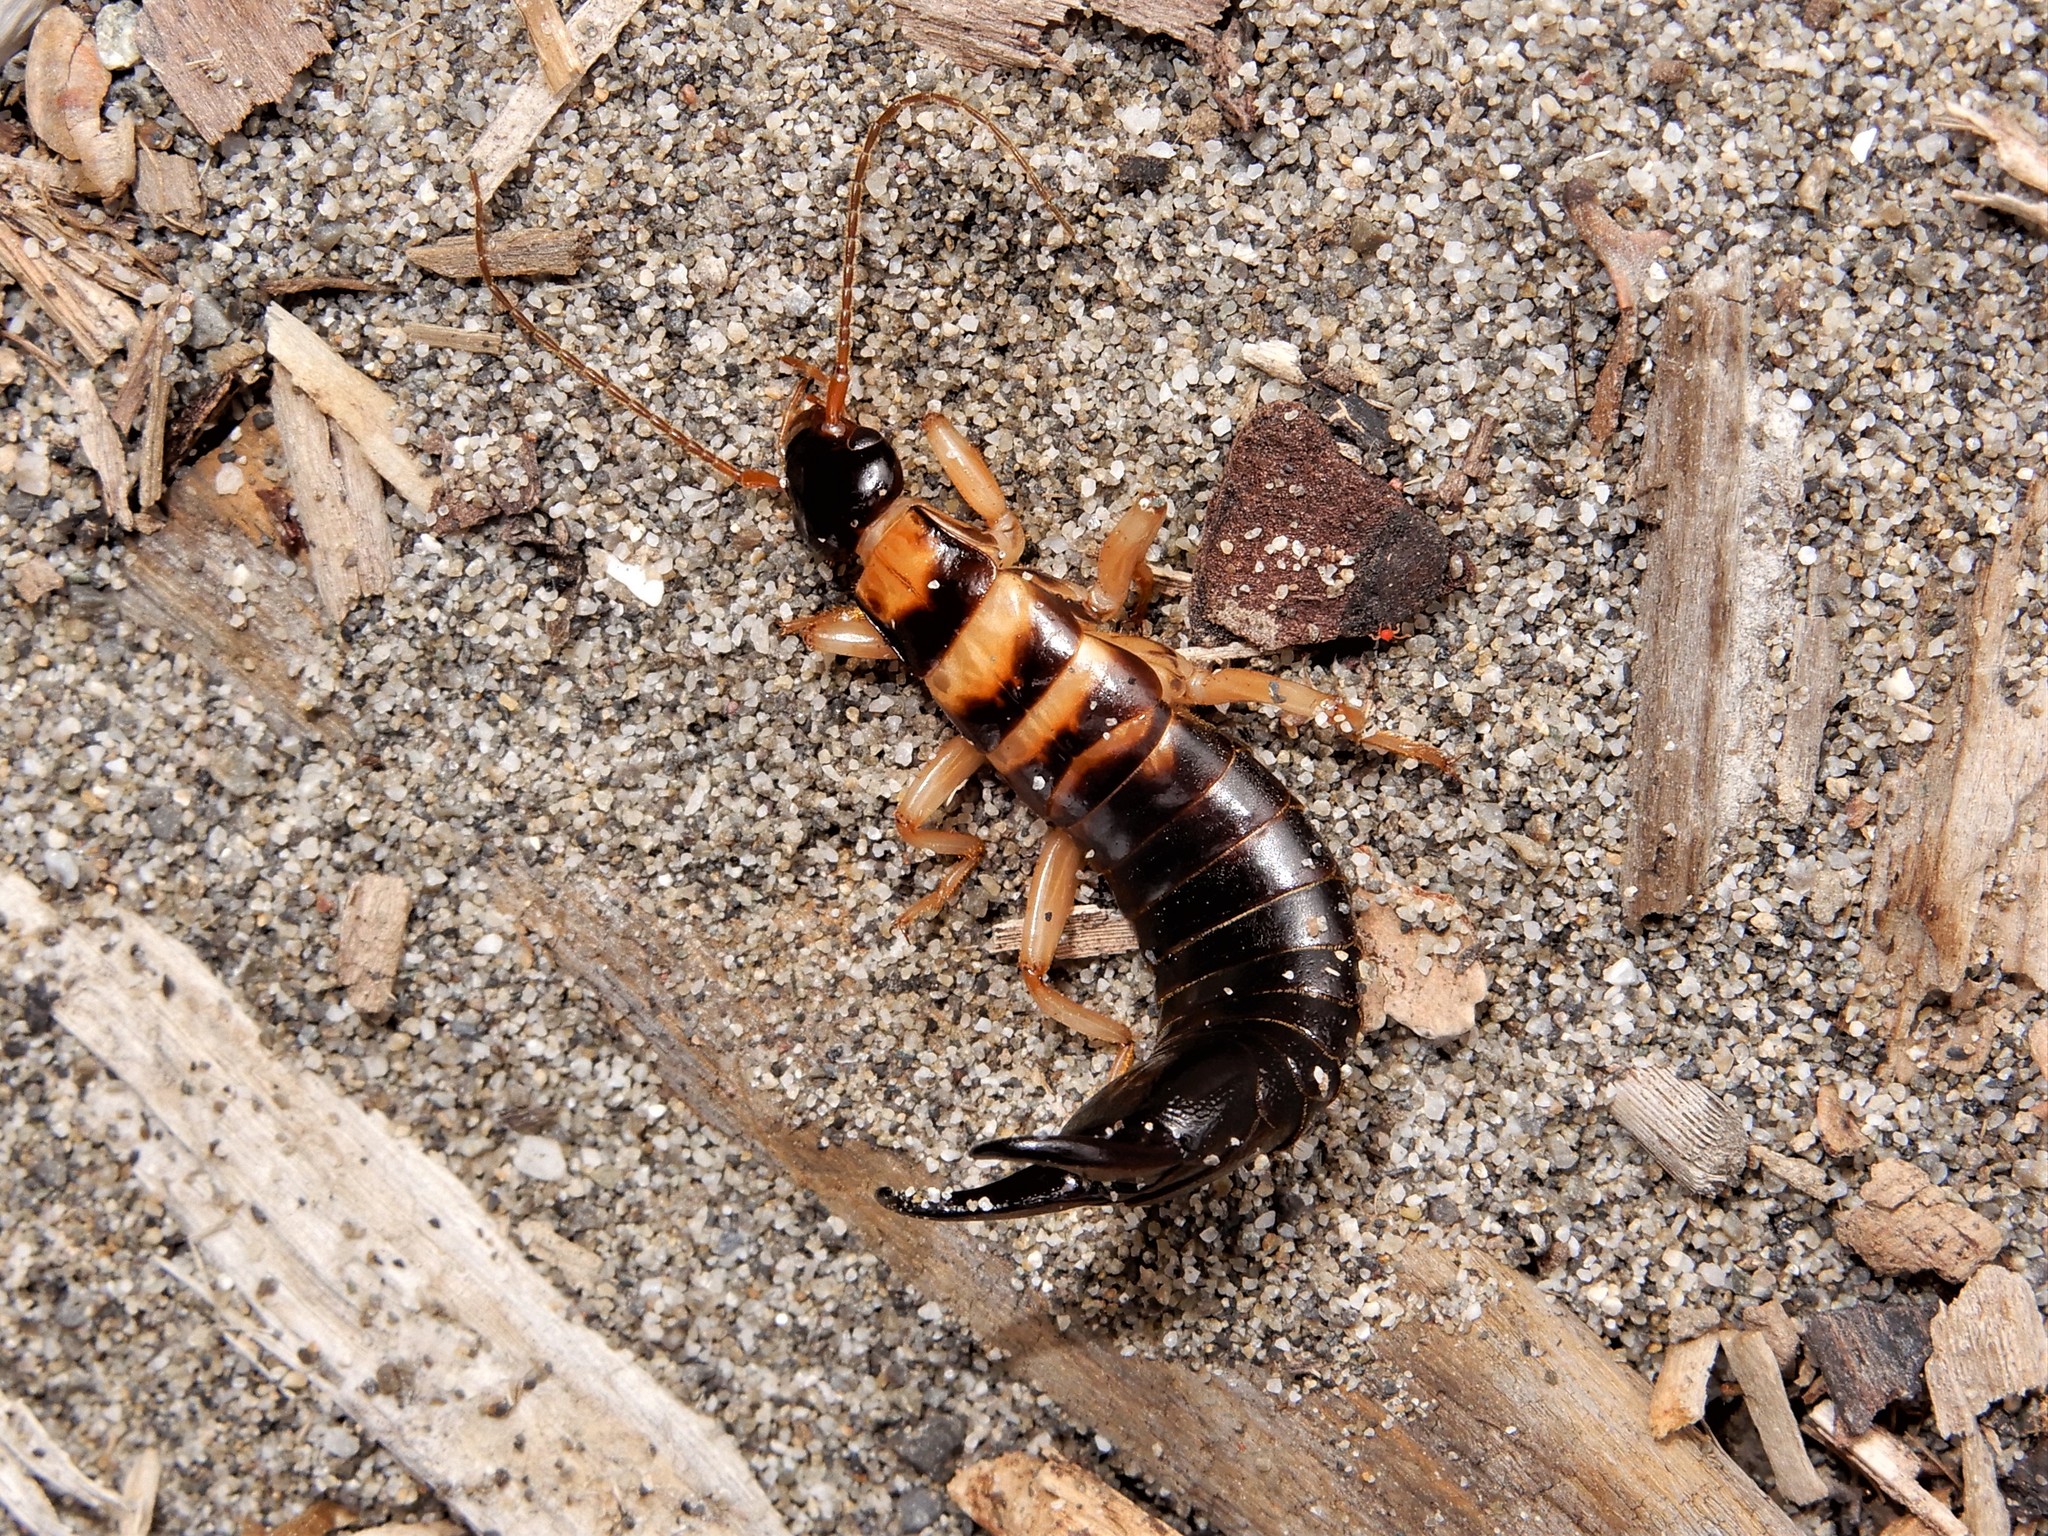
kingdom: Animalia
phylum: Arthropoda
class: Insecta
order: Dermaptera
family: Anisolabididae
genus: Anisolabis
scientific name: Anisolabis littorea
